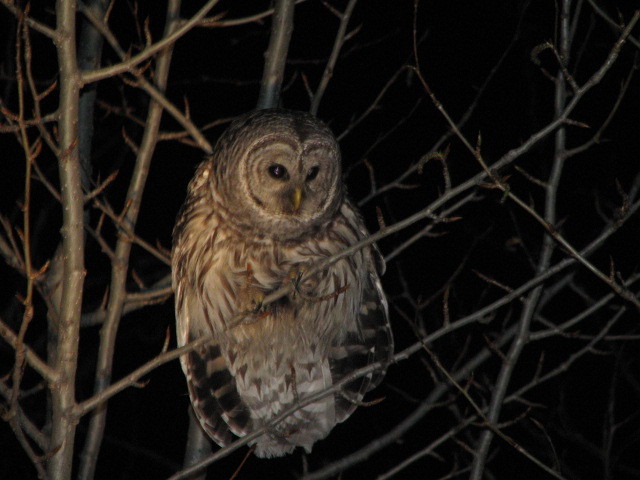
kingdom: Animalia
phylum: Chordata
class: Aves
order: Strigiformes
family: Strigidae
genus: Strix
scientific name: Strix varia
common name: Barred owl
